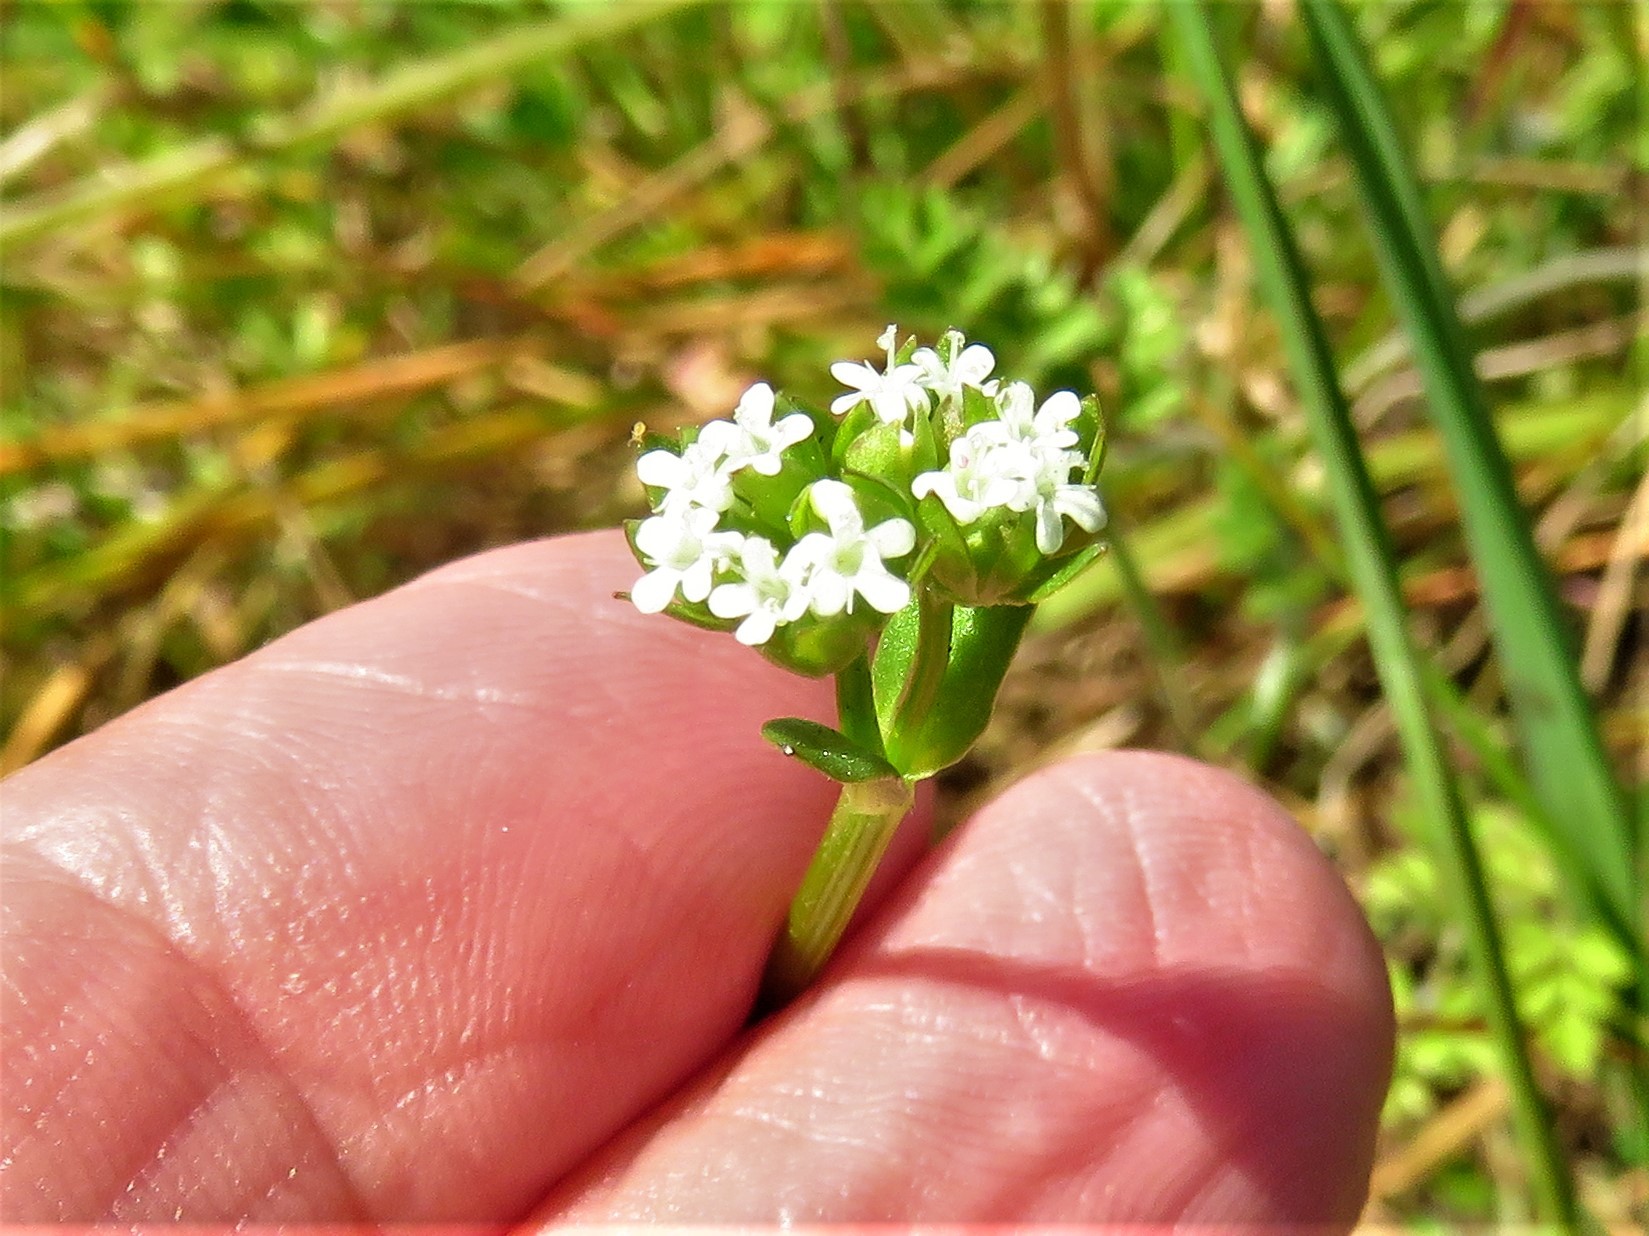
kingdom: Plantae
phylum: Tracheophyta
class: Magnoliopsida
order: Dipsacales
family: Caprifoliaceae
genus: Valerianella
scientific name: Valerianella radiata
